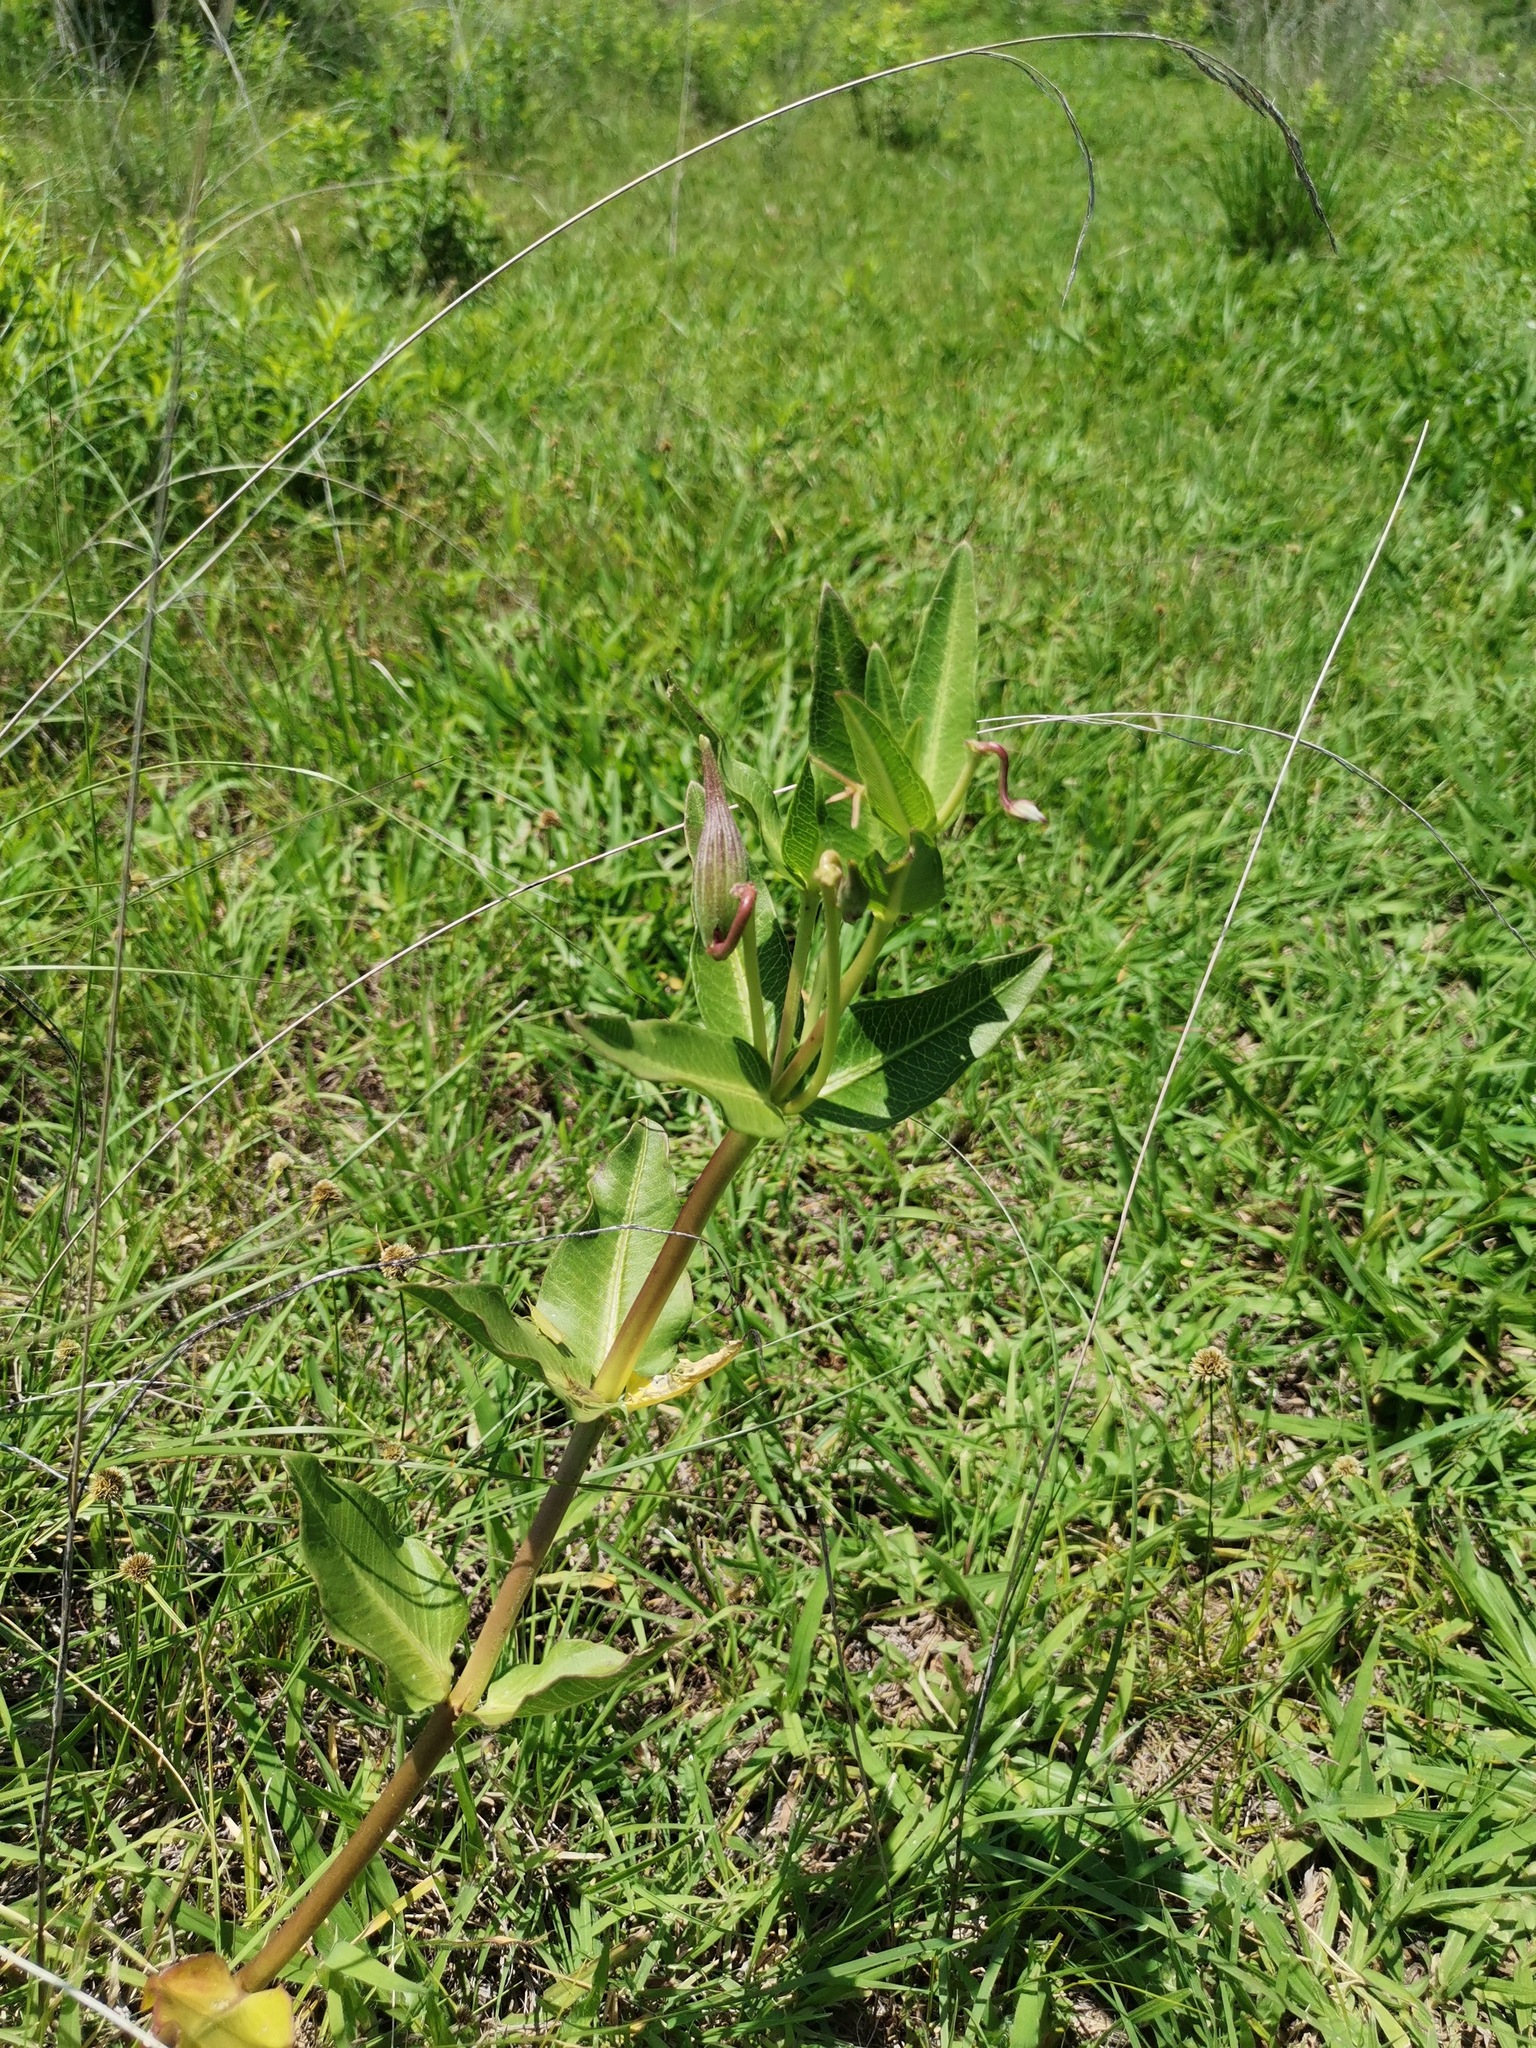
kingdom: Plantae
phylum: Tracheophyta
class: Magnoliopsida
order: Gentianales
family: Apocynaceae
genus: Asclepias
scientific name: Asclepias pratensis
